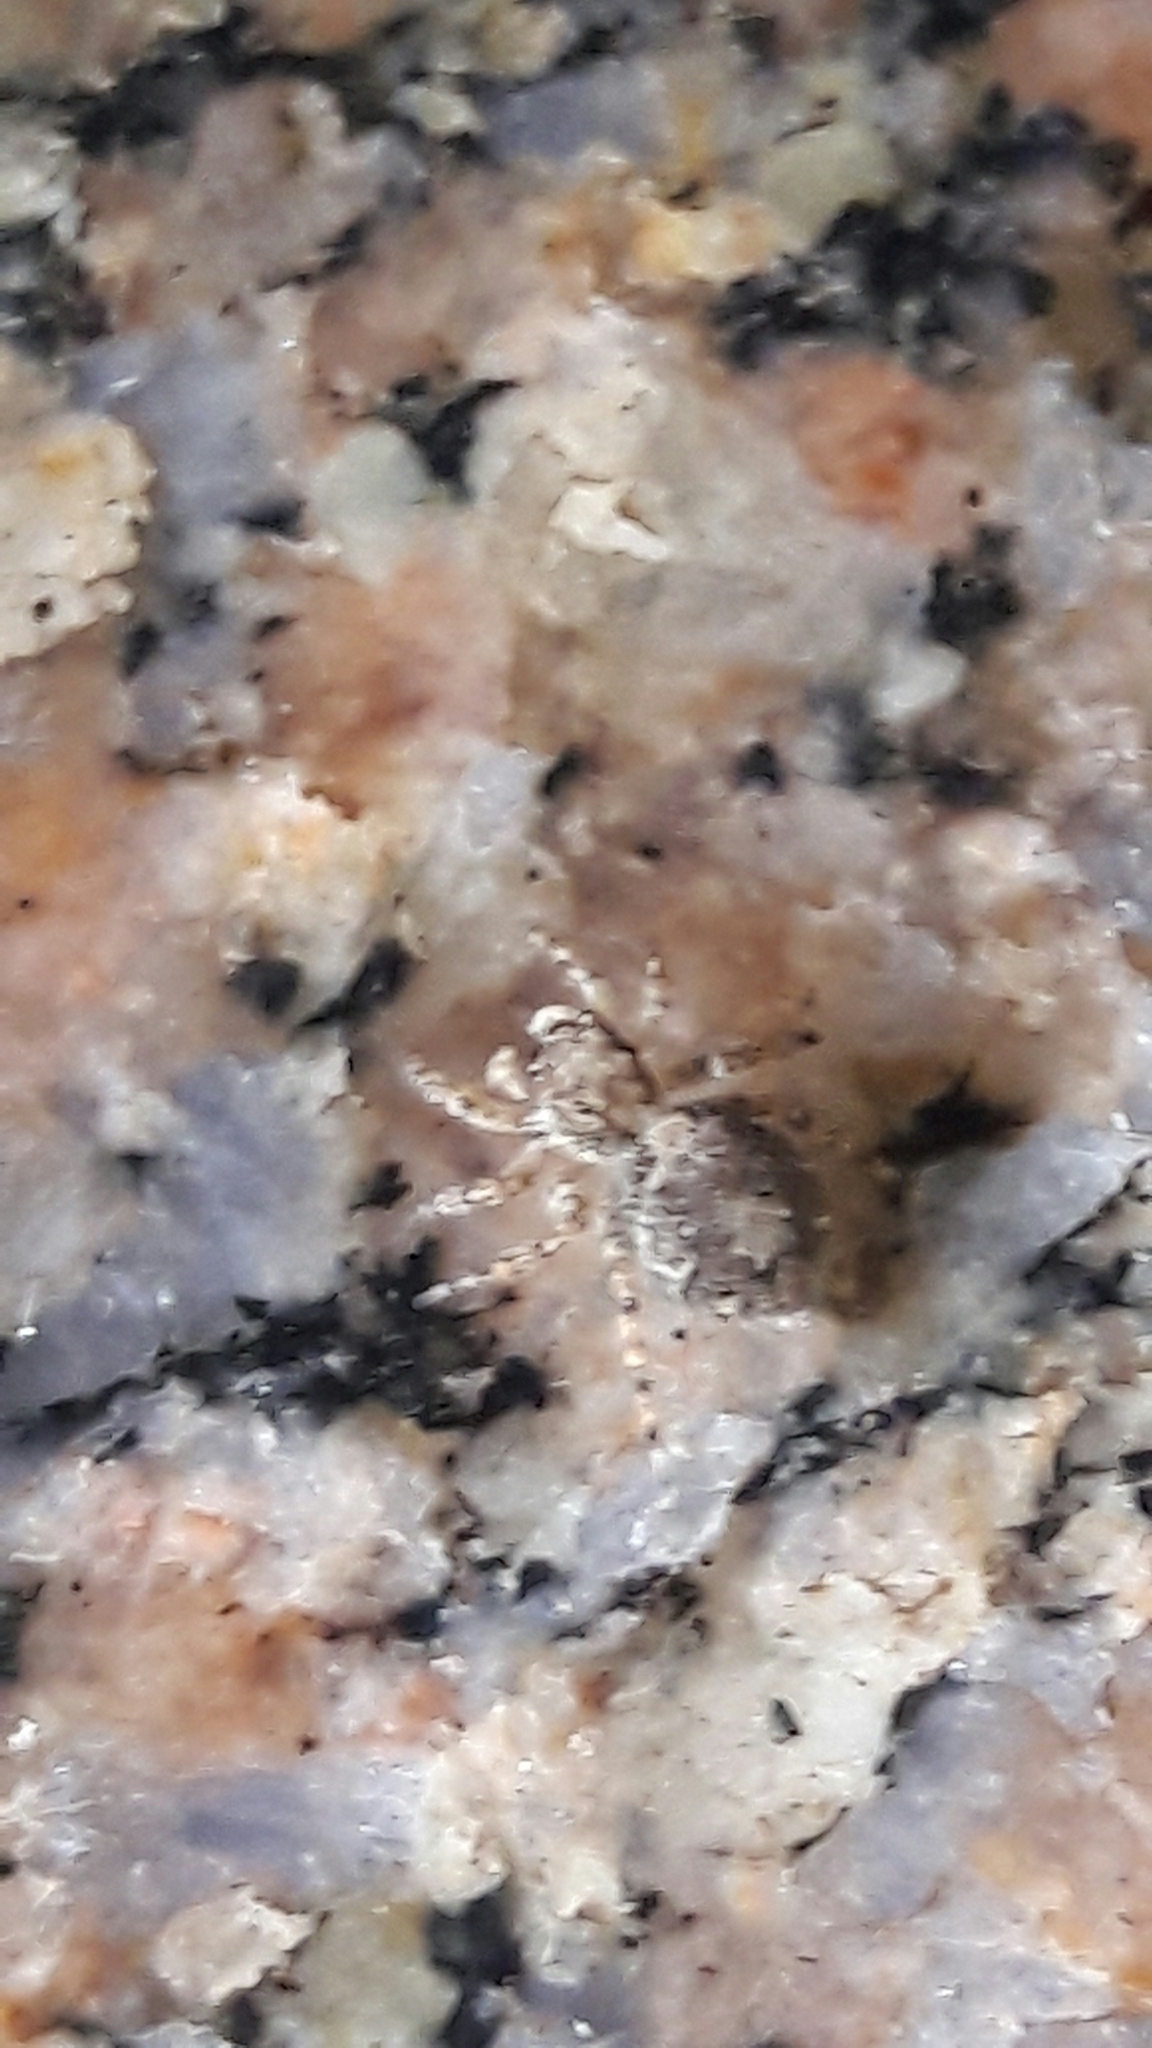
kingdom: Animalia
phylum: Arthropoda
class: Arachnida
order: Araneae
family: Salticidae
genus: Marma
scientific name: Marma nigritarsis
